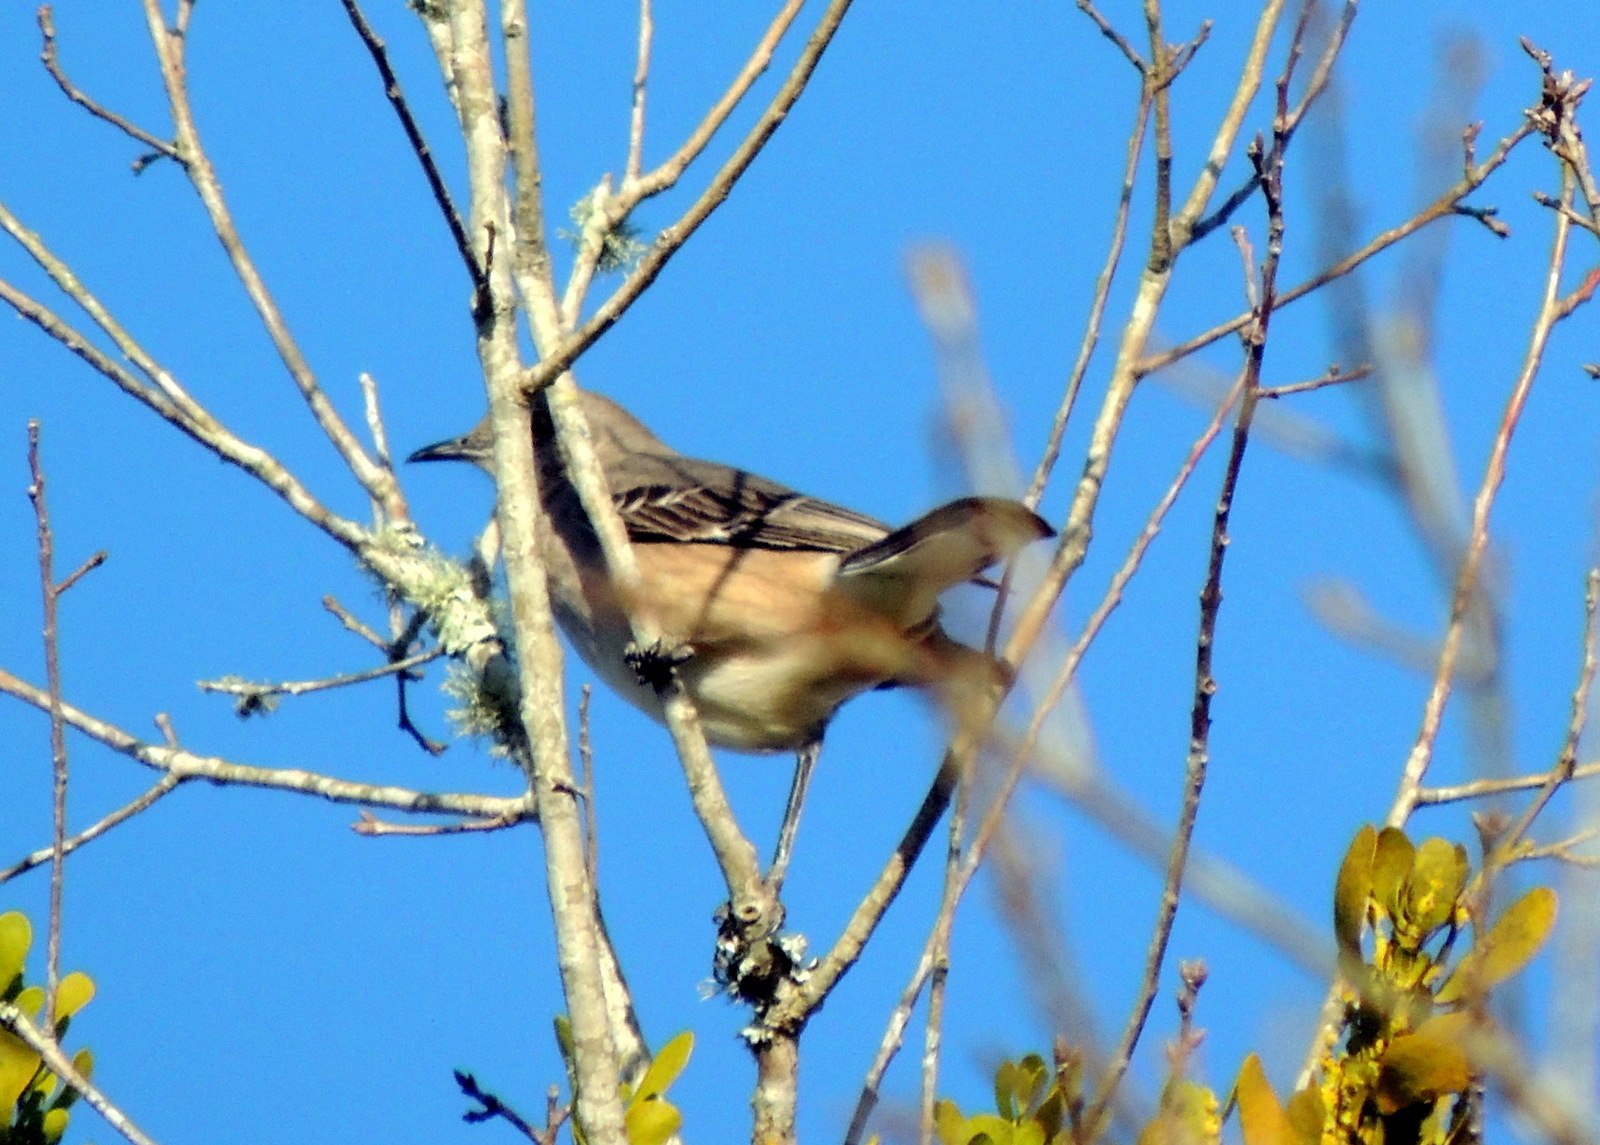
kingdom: Animalia
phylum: Chordata
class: Aves
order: Passeriformes
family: Mimidae
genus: Mimus
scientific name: Mimus polyglottos
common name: Northern mockingbird
